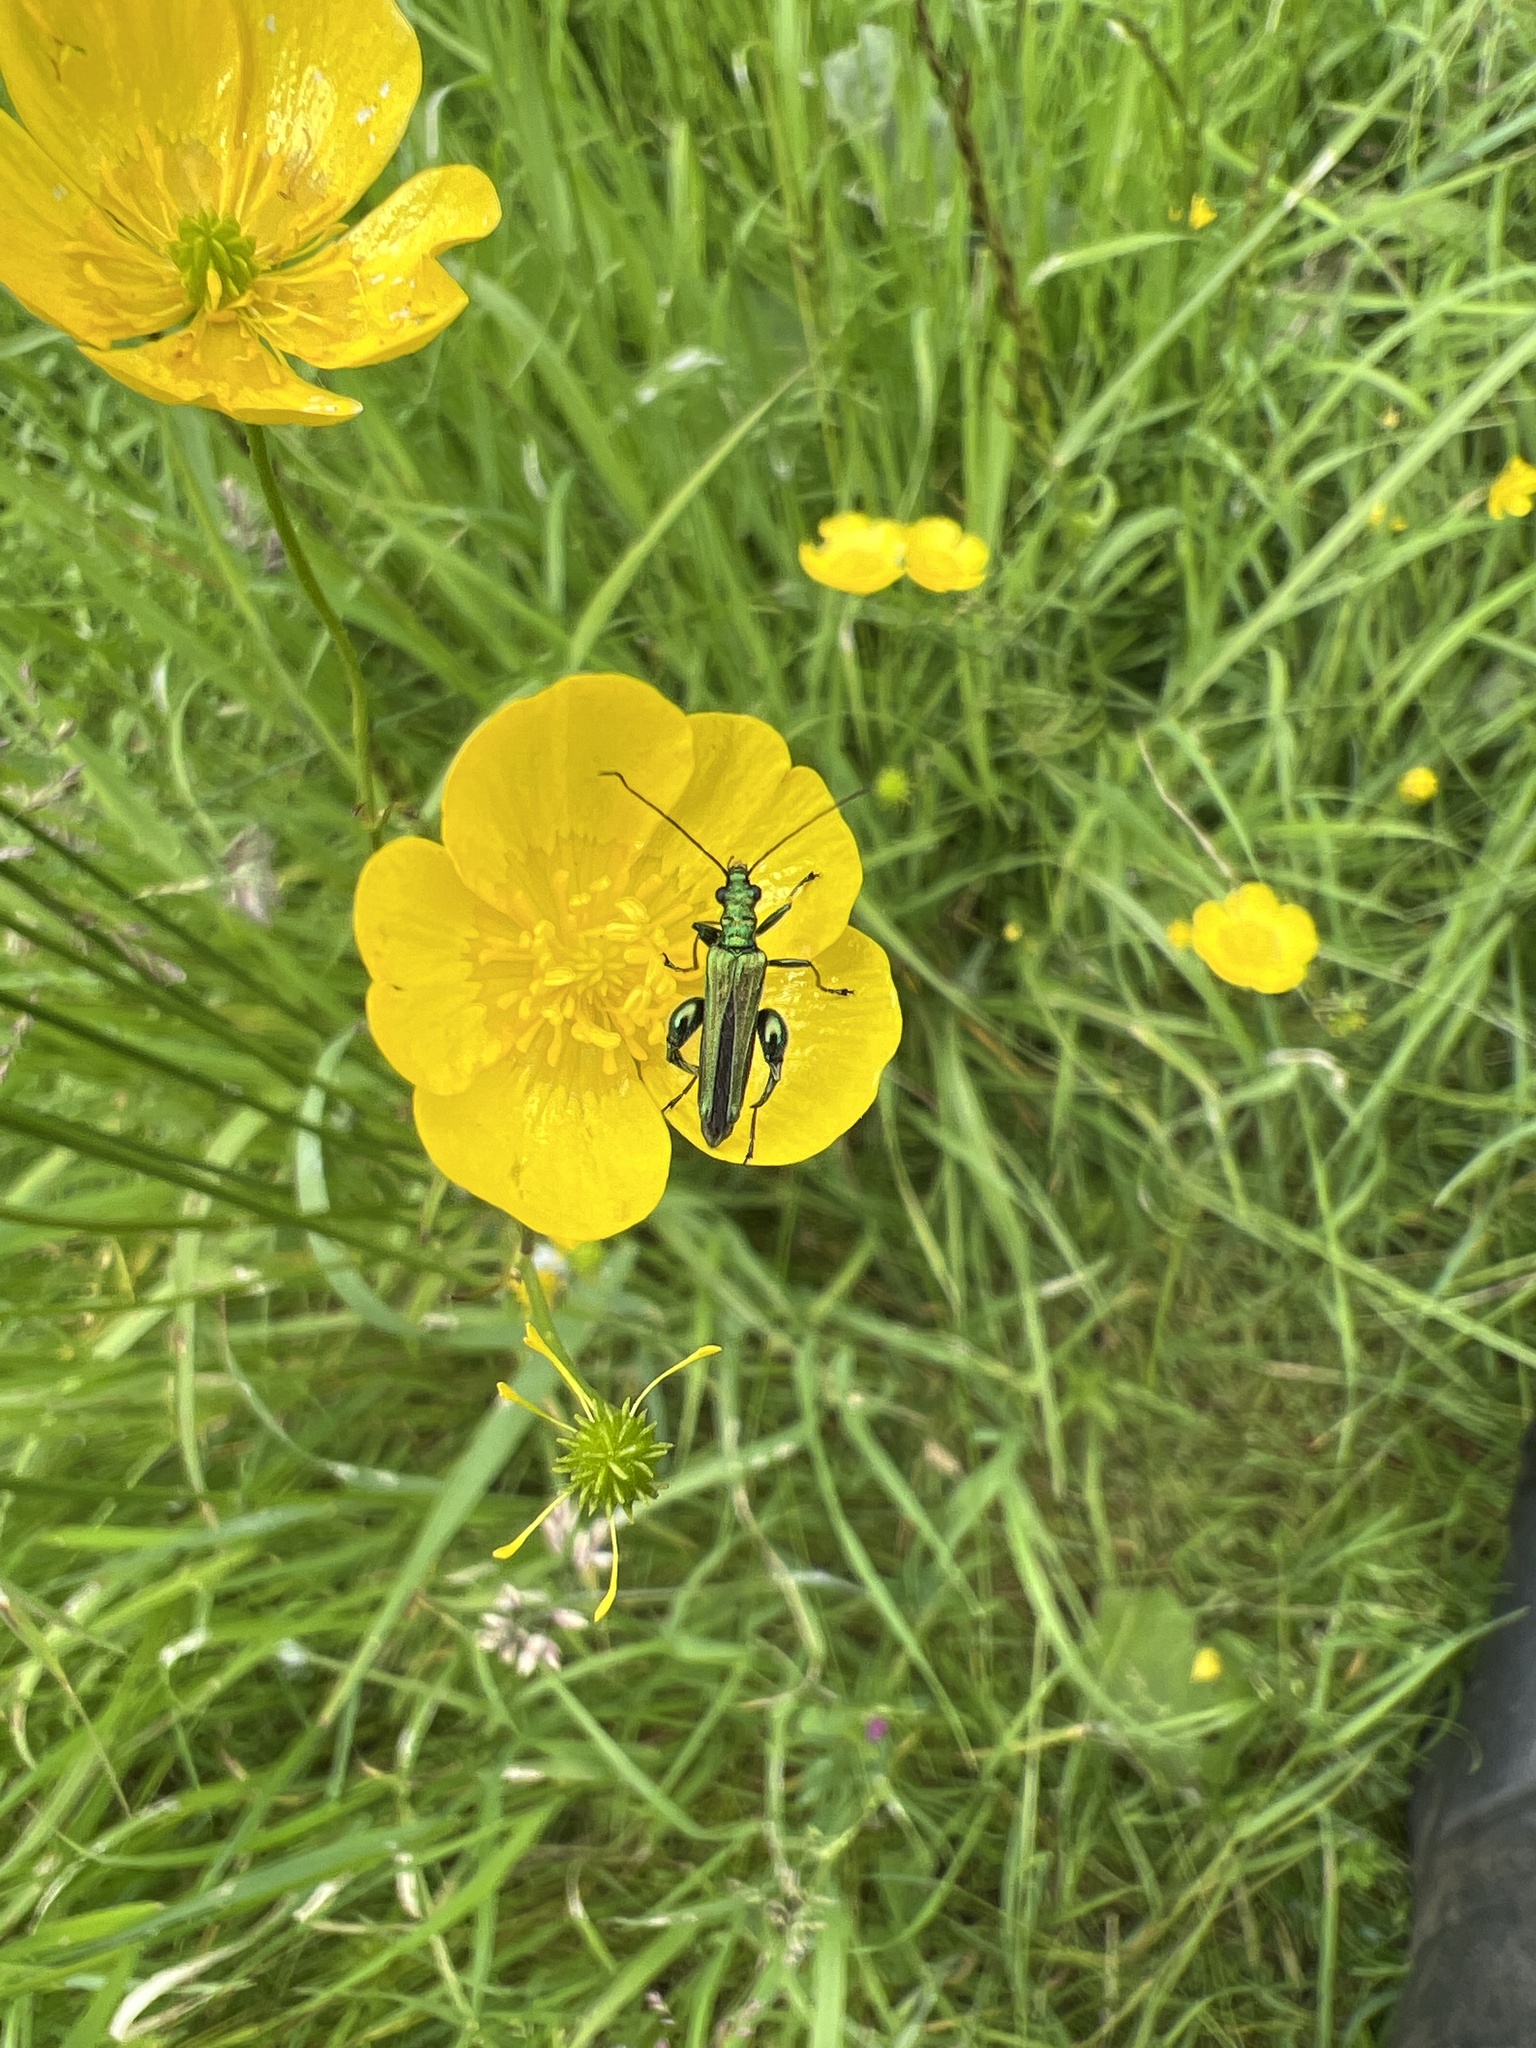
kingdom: Animalia
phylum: Arthropoda
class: Insecta
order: Coleoptera
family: Oedemeridae
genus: Oedemera
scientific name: Oedemera nobilis
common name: Swollen-thighed beetle
